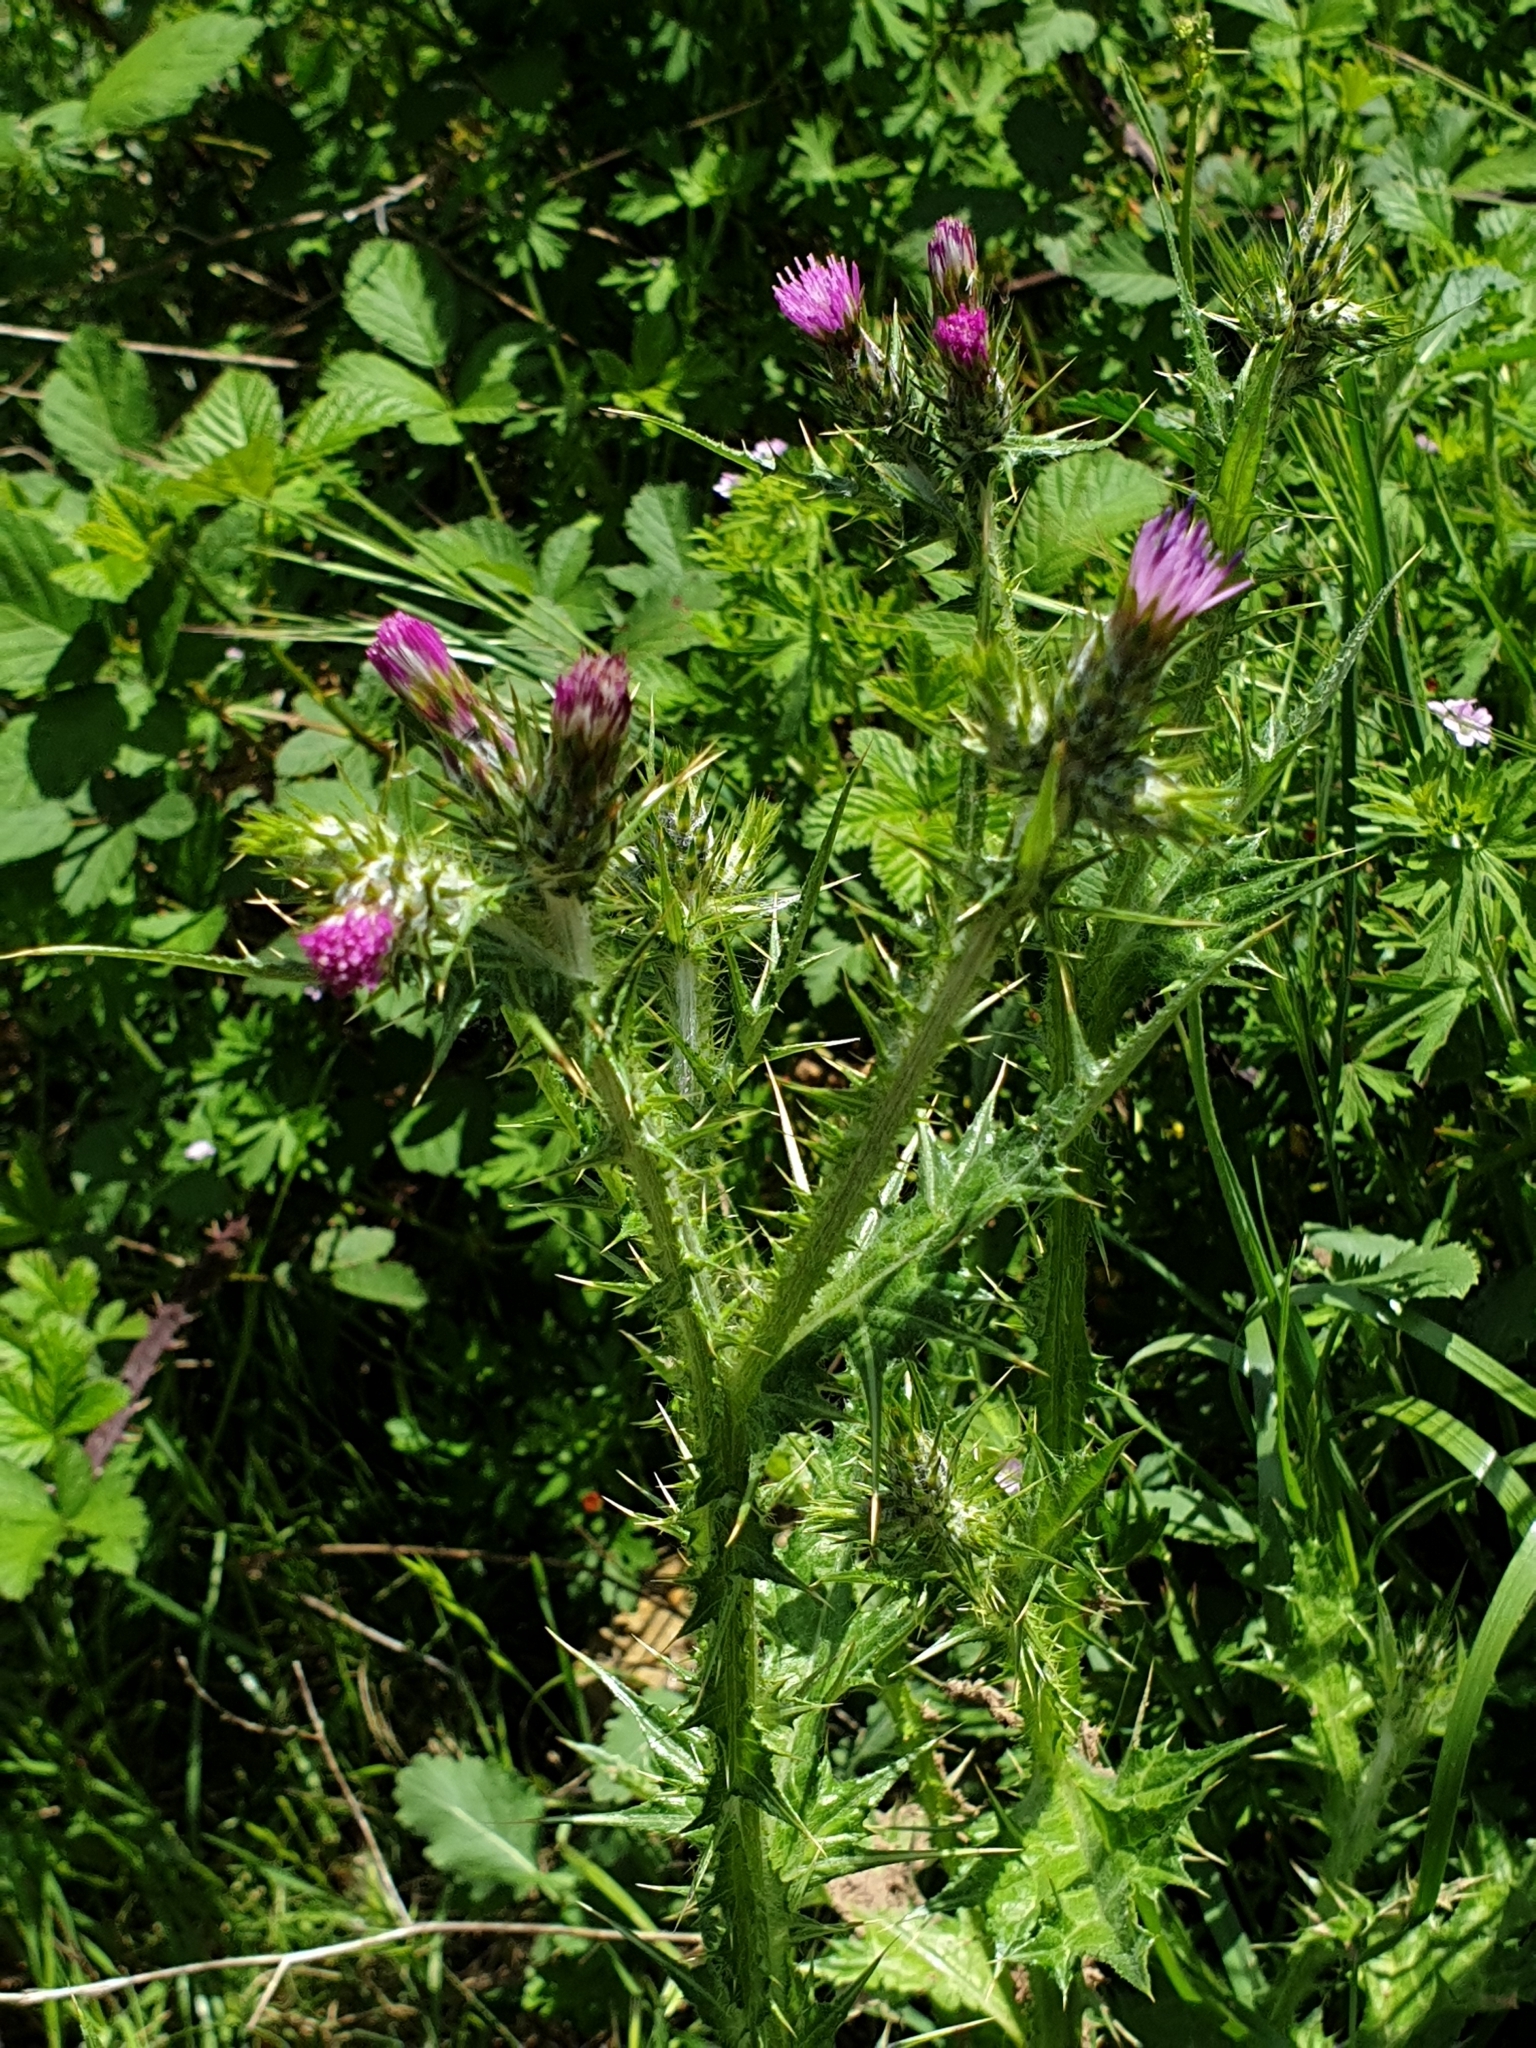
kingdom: Plantae
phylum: Tracheophyta
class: Magnoliopsida
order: Asterales
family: Asteraceae
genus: Carduus
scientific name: Carduus tenuiflorus
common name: Slender thistle
